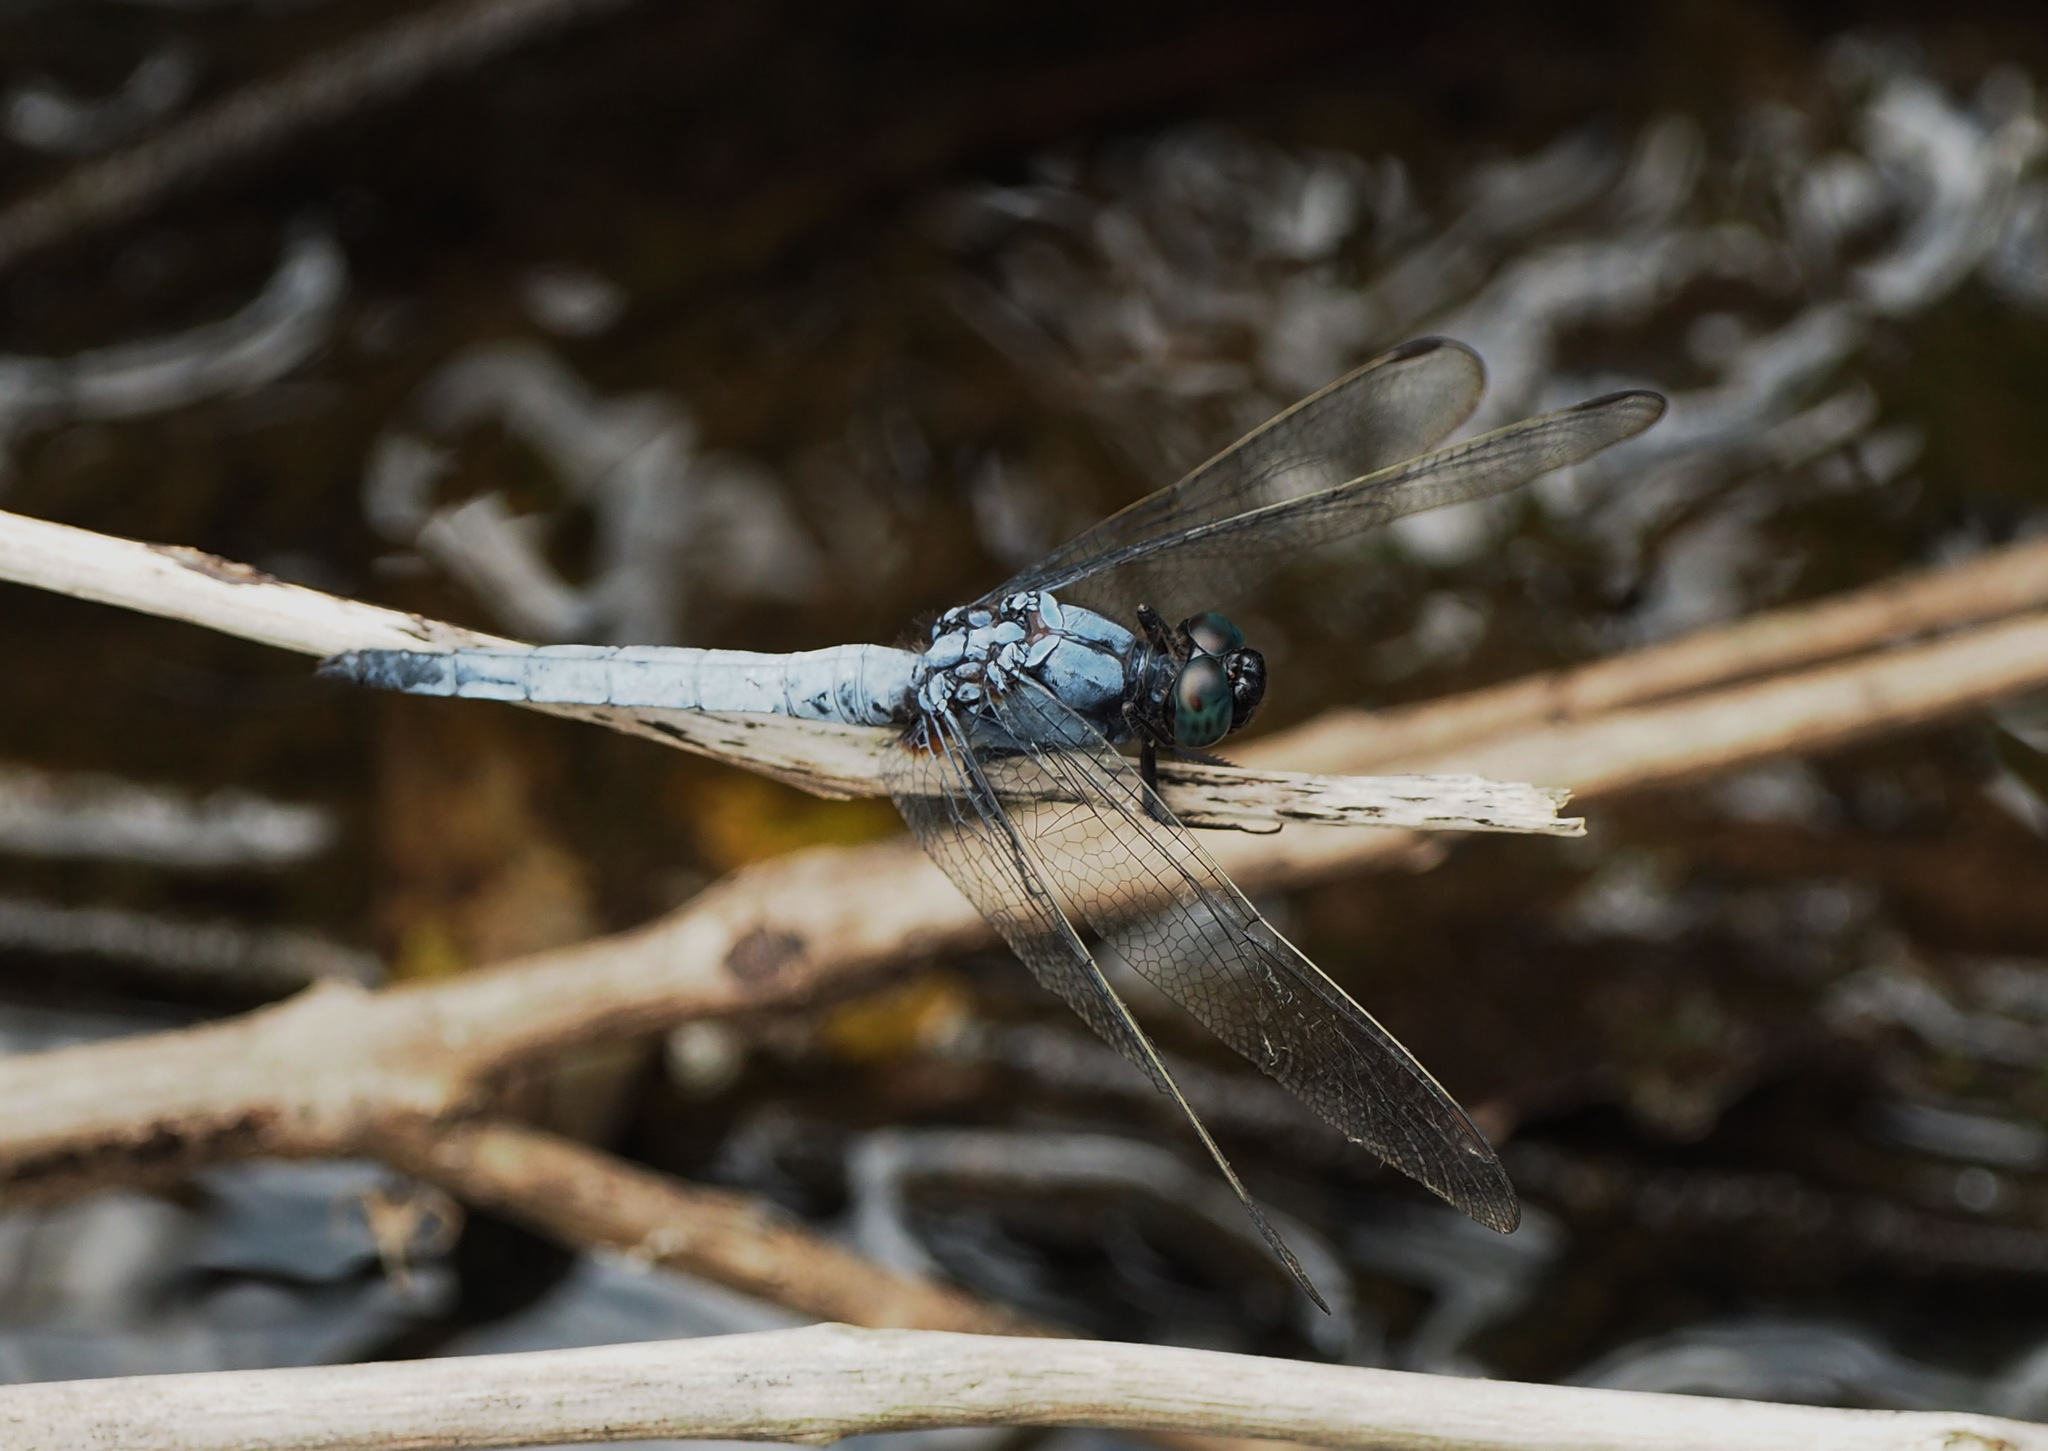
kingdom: Animalia
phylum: Arthropoda
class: Insecta
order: Odonata
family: Libellulidae
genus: Orthetrum
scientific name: Orthetrum glaucum
